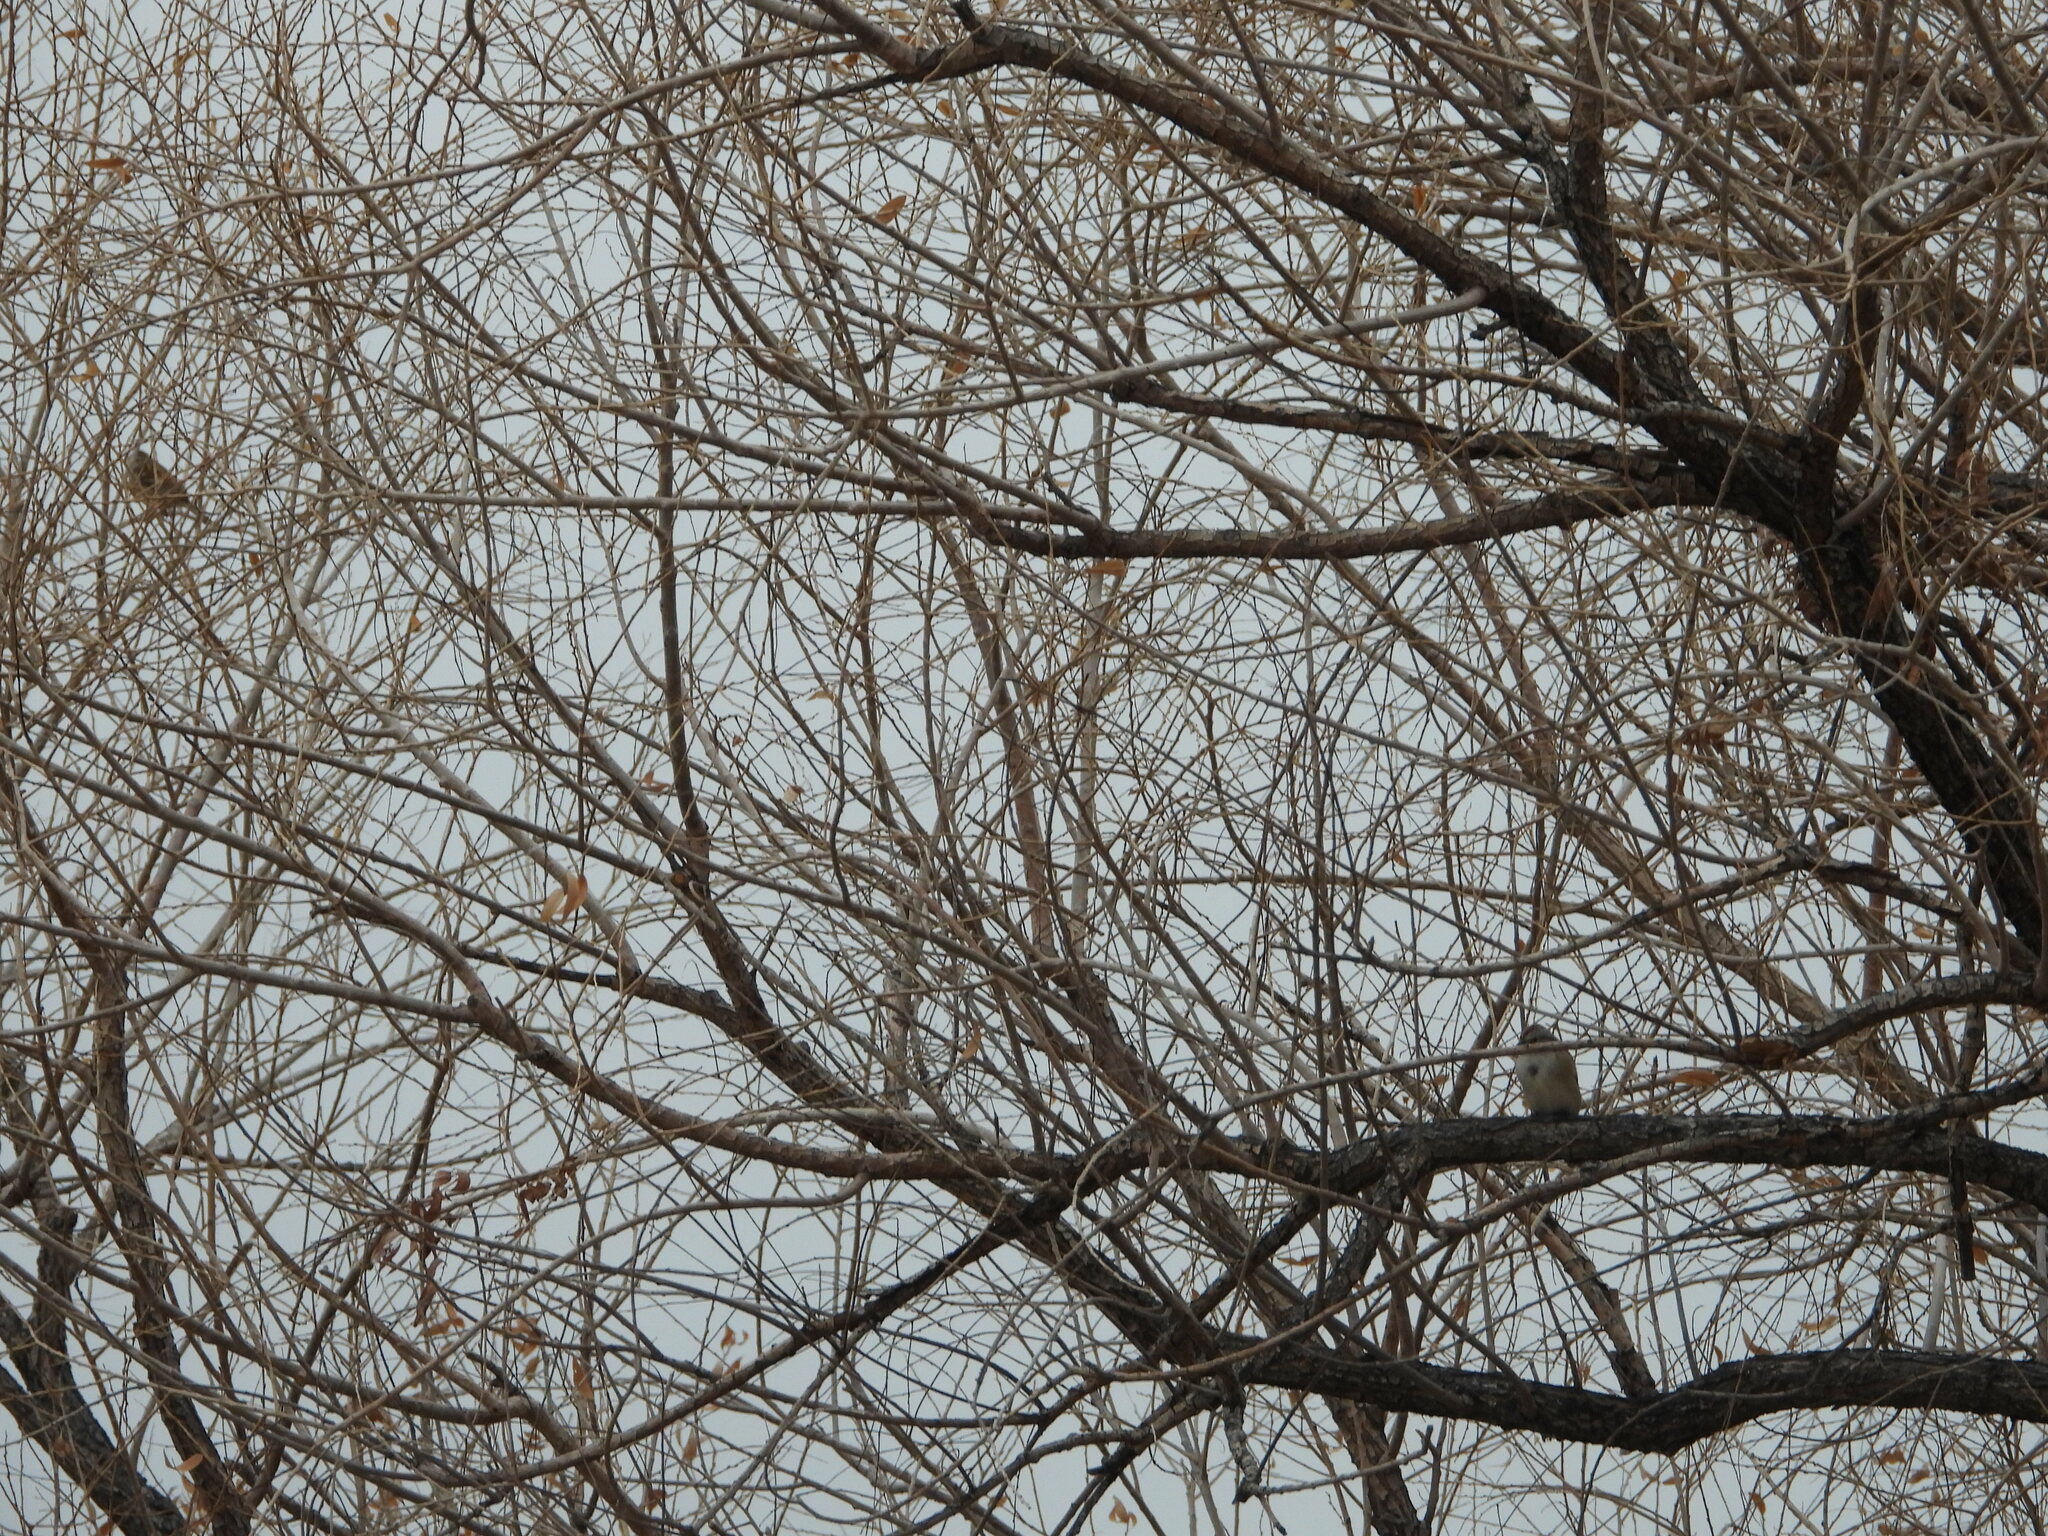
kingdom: Animalia
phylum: Chordata
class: Aves
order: Passeriformes
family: Passerellidae
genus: Spizelloides
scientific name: Spizelloides arborea
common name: American tree sparrow
